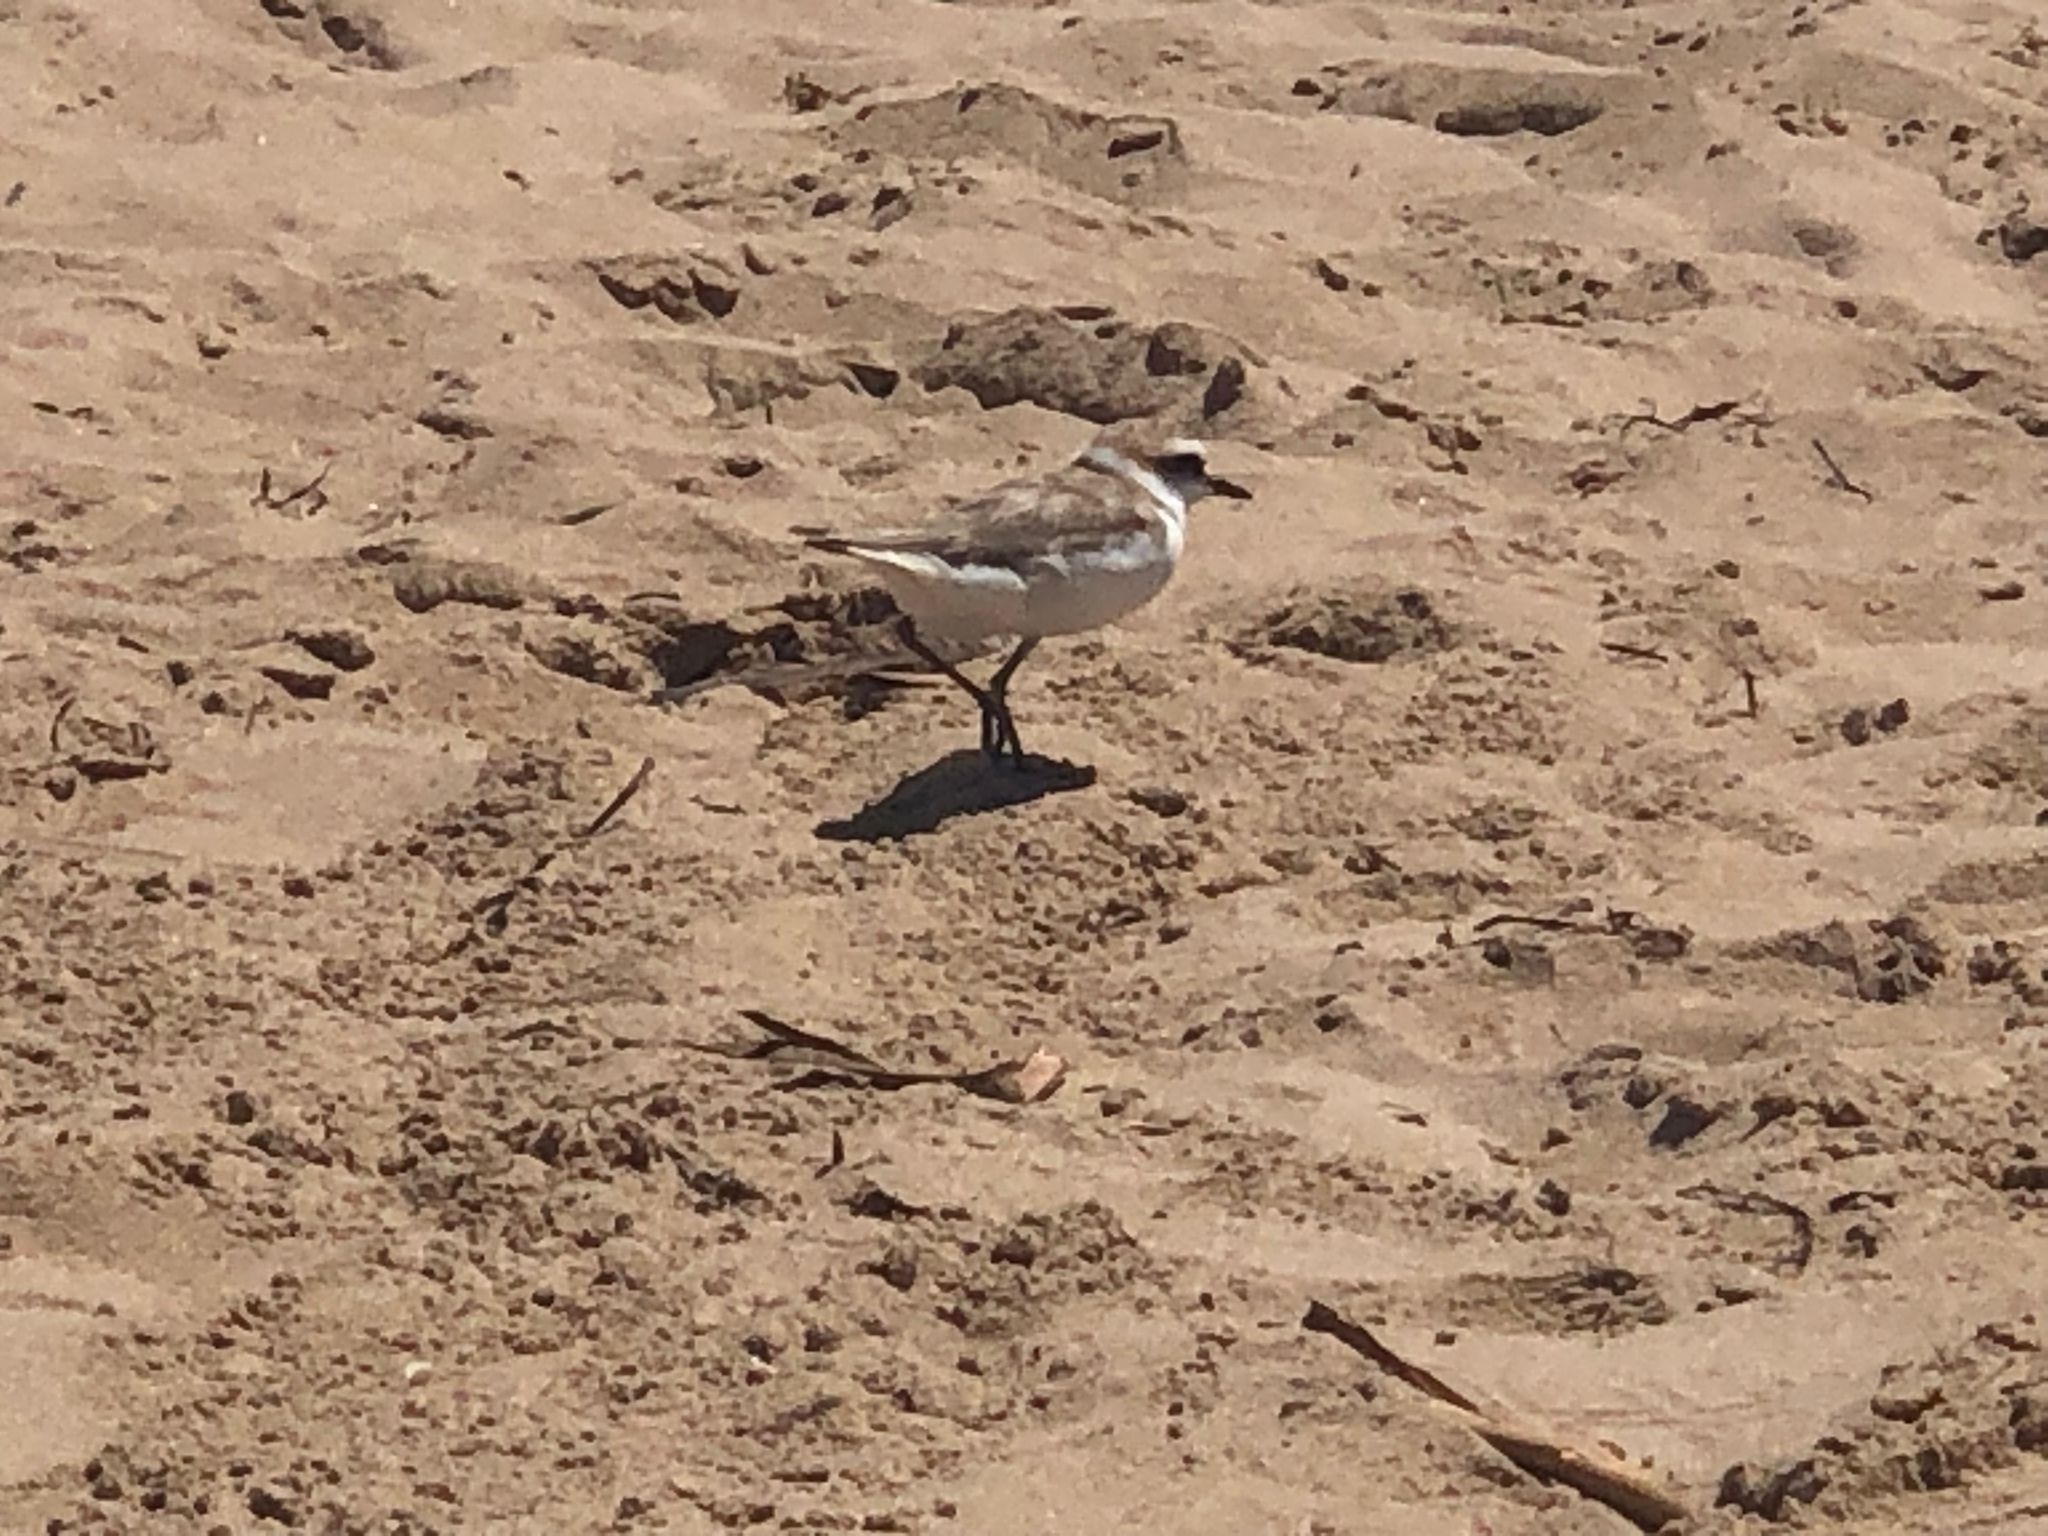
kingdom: Animalia
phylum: Chordata
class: Aves
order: Charadriiformes
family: Charadriidae
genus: Charadrius
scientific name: Charadrius alexandrinus
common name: Kentish plover
